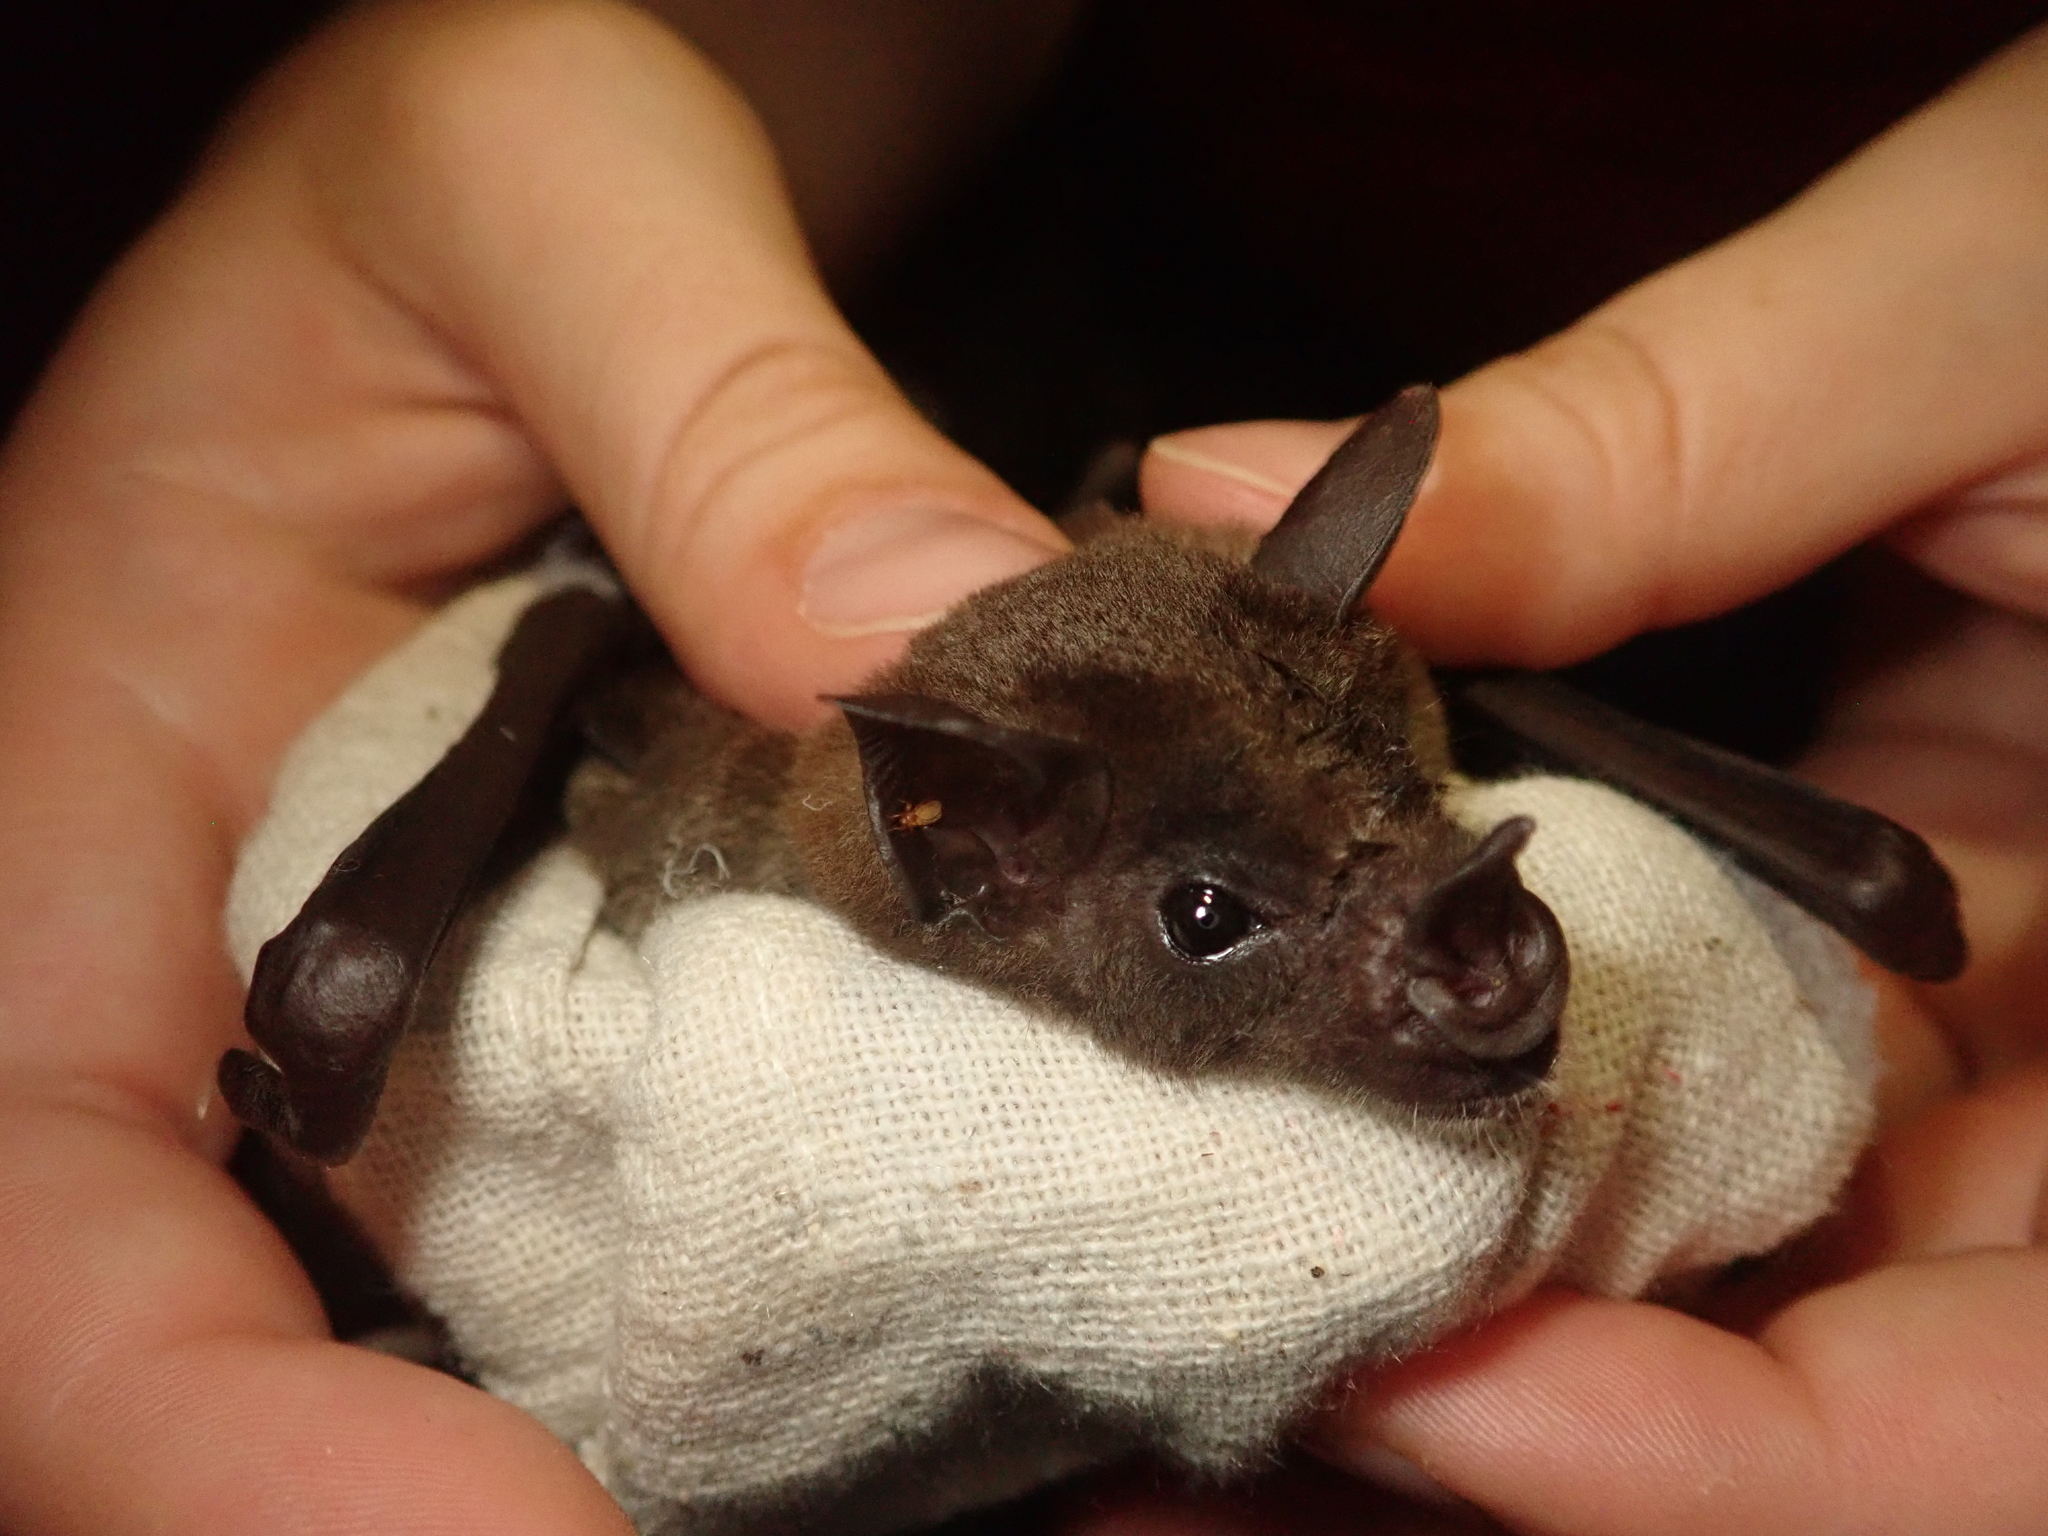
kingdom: Animalia
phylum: Chordata
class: Mammalia
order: Chiroptera
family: Phyllostomidae
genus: Phyllostomus
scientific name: Phyllostomus discolor
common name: Pale spear-nosed bat
